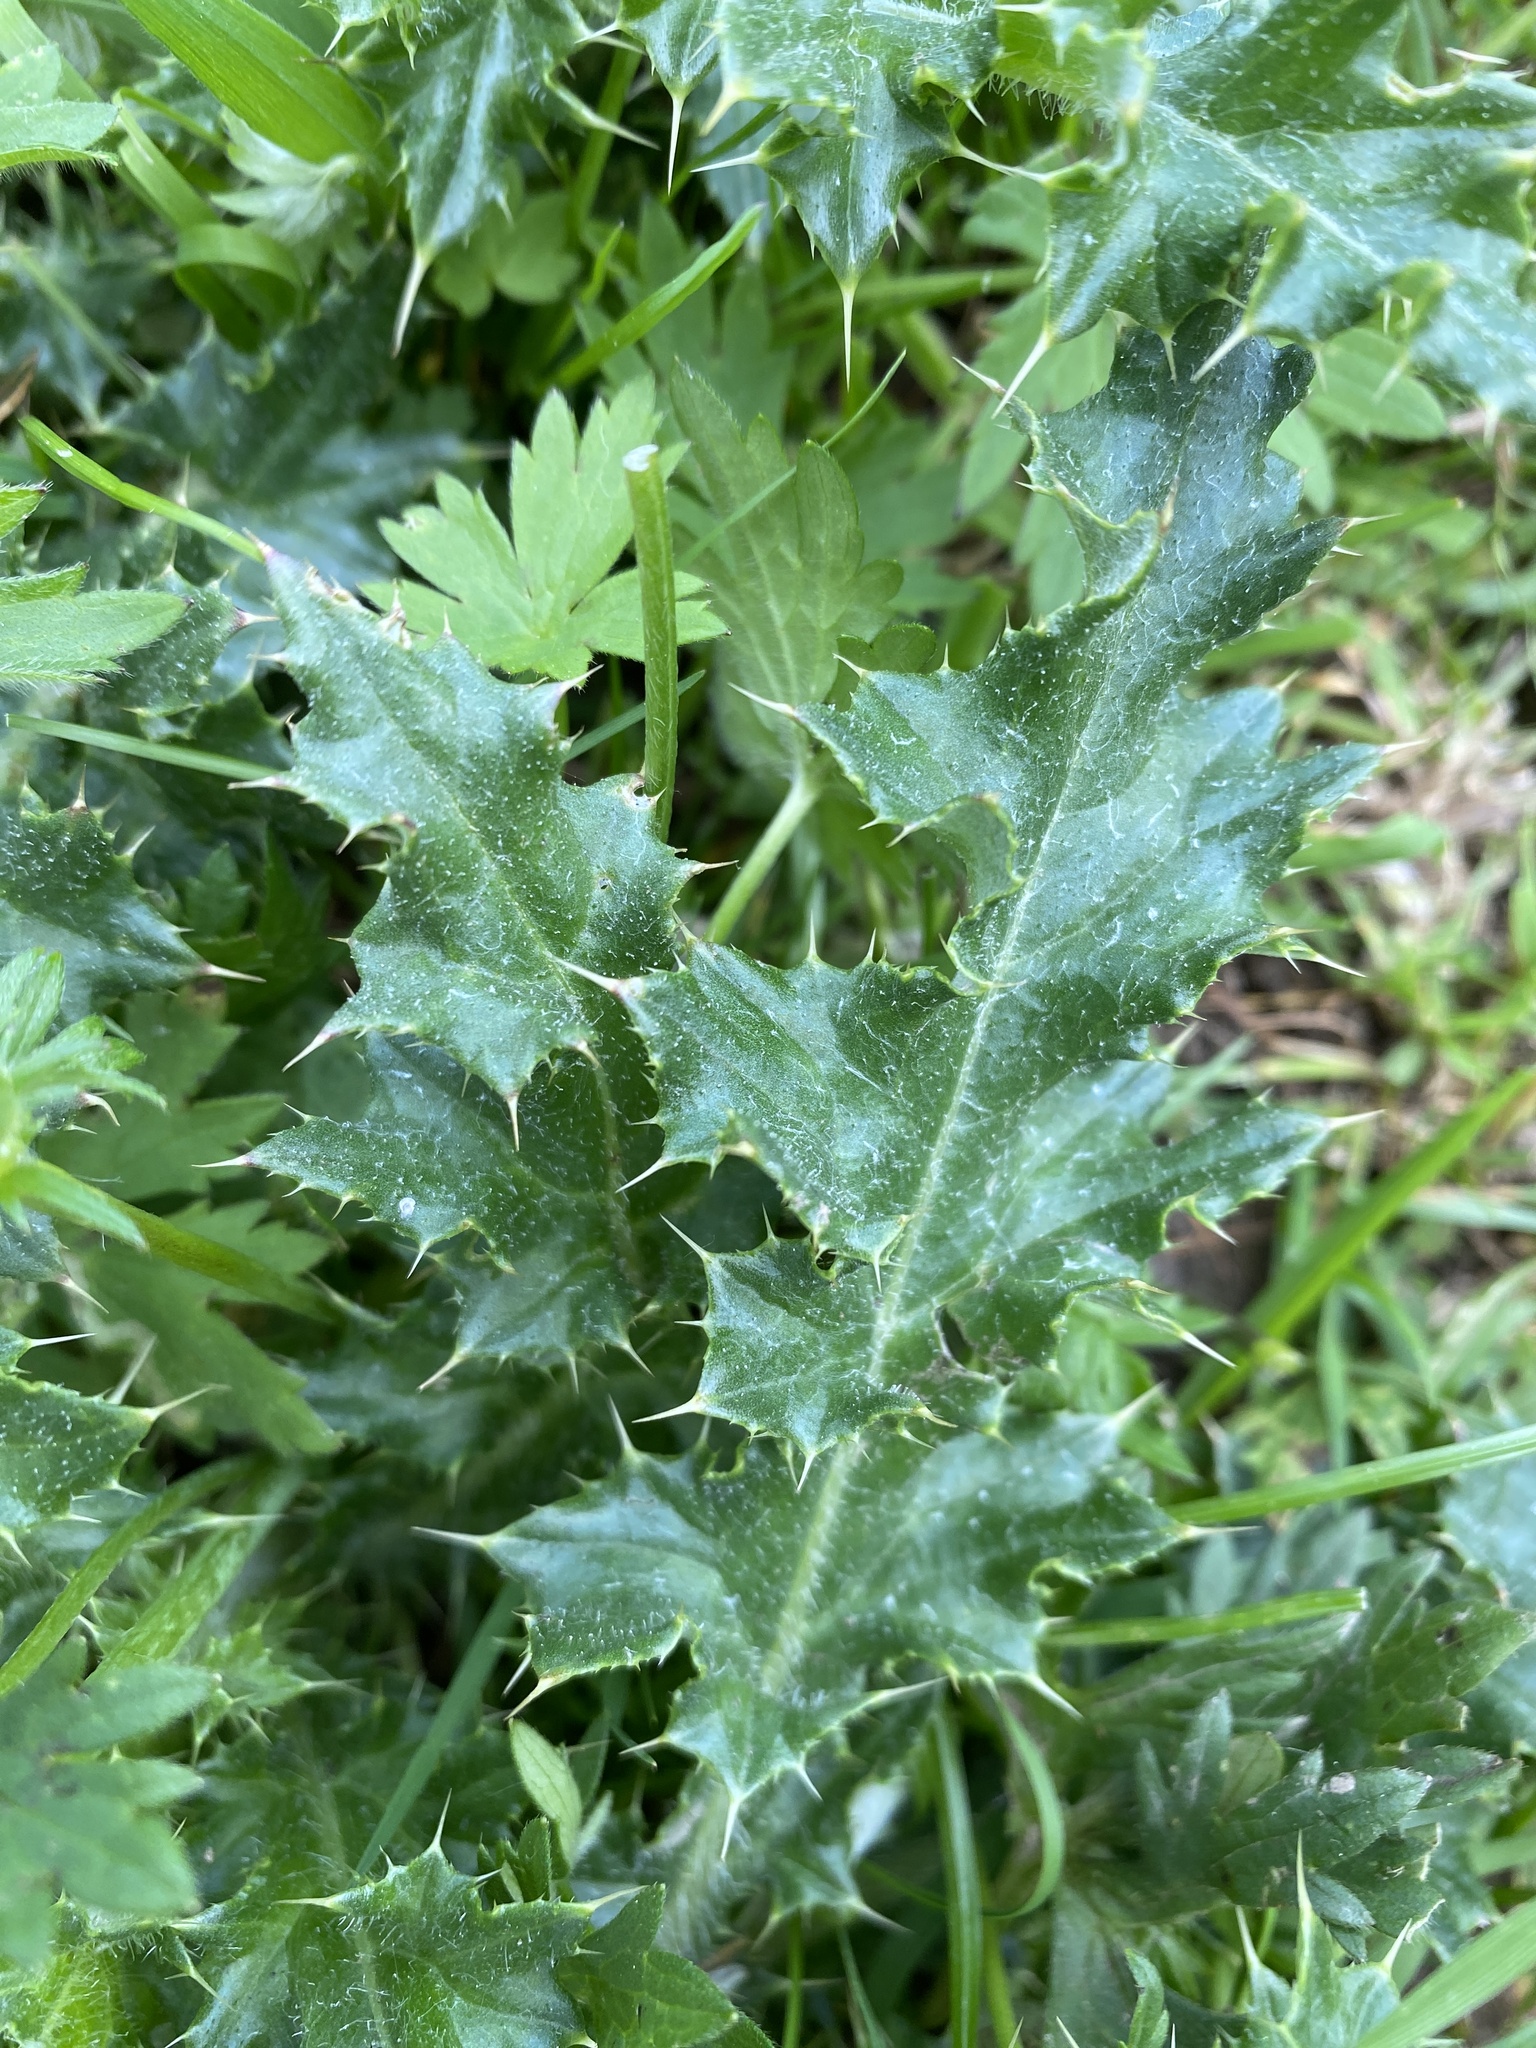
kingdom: Plantae
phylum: Tracheophyta
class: Magnoliopsida
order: Asterales
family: Asteraceae
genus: Cirsium
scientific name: Cirsium arvense
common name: Creeping thistle
